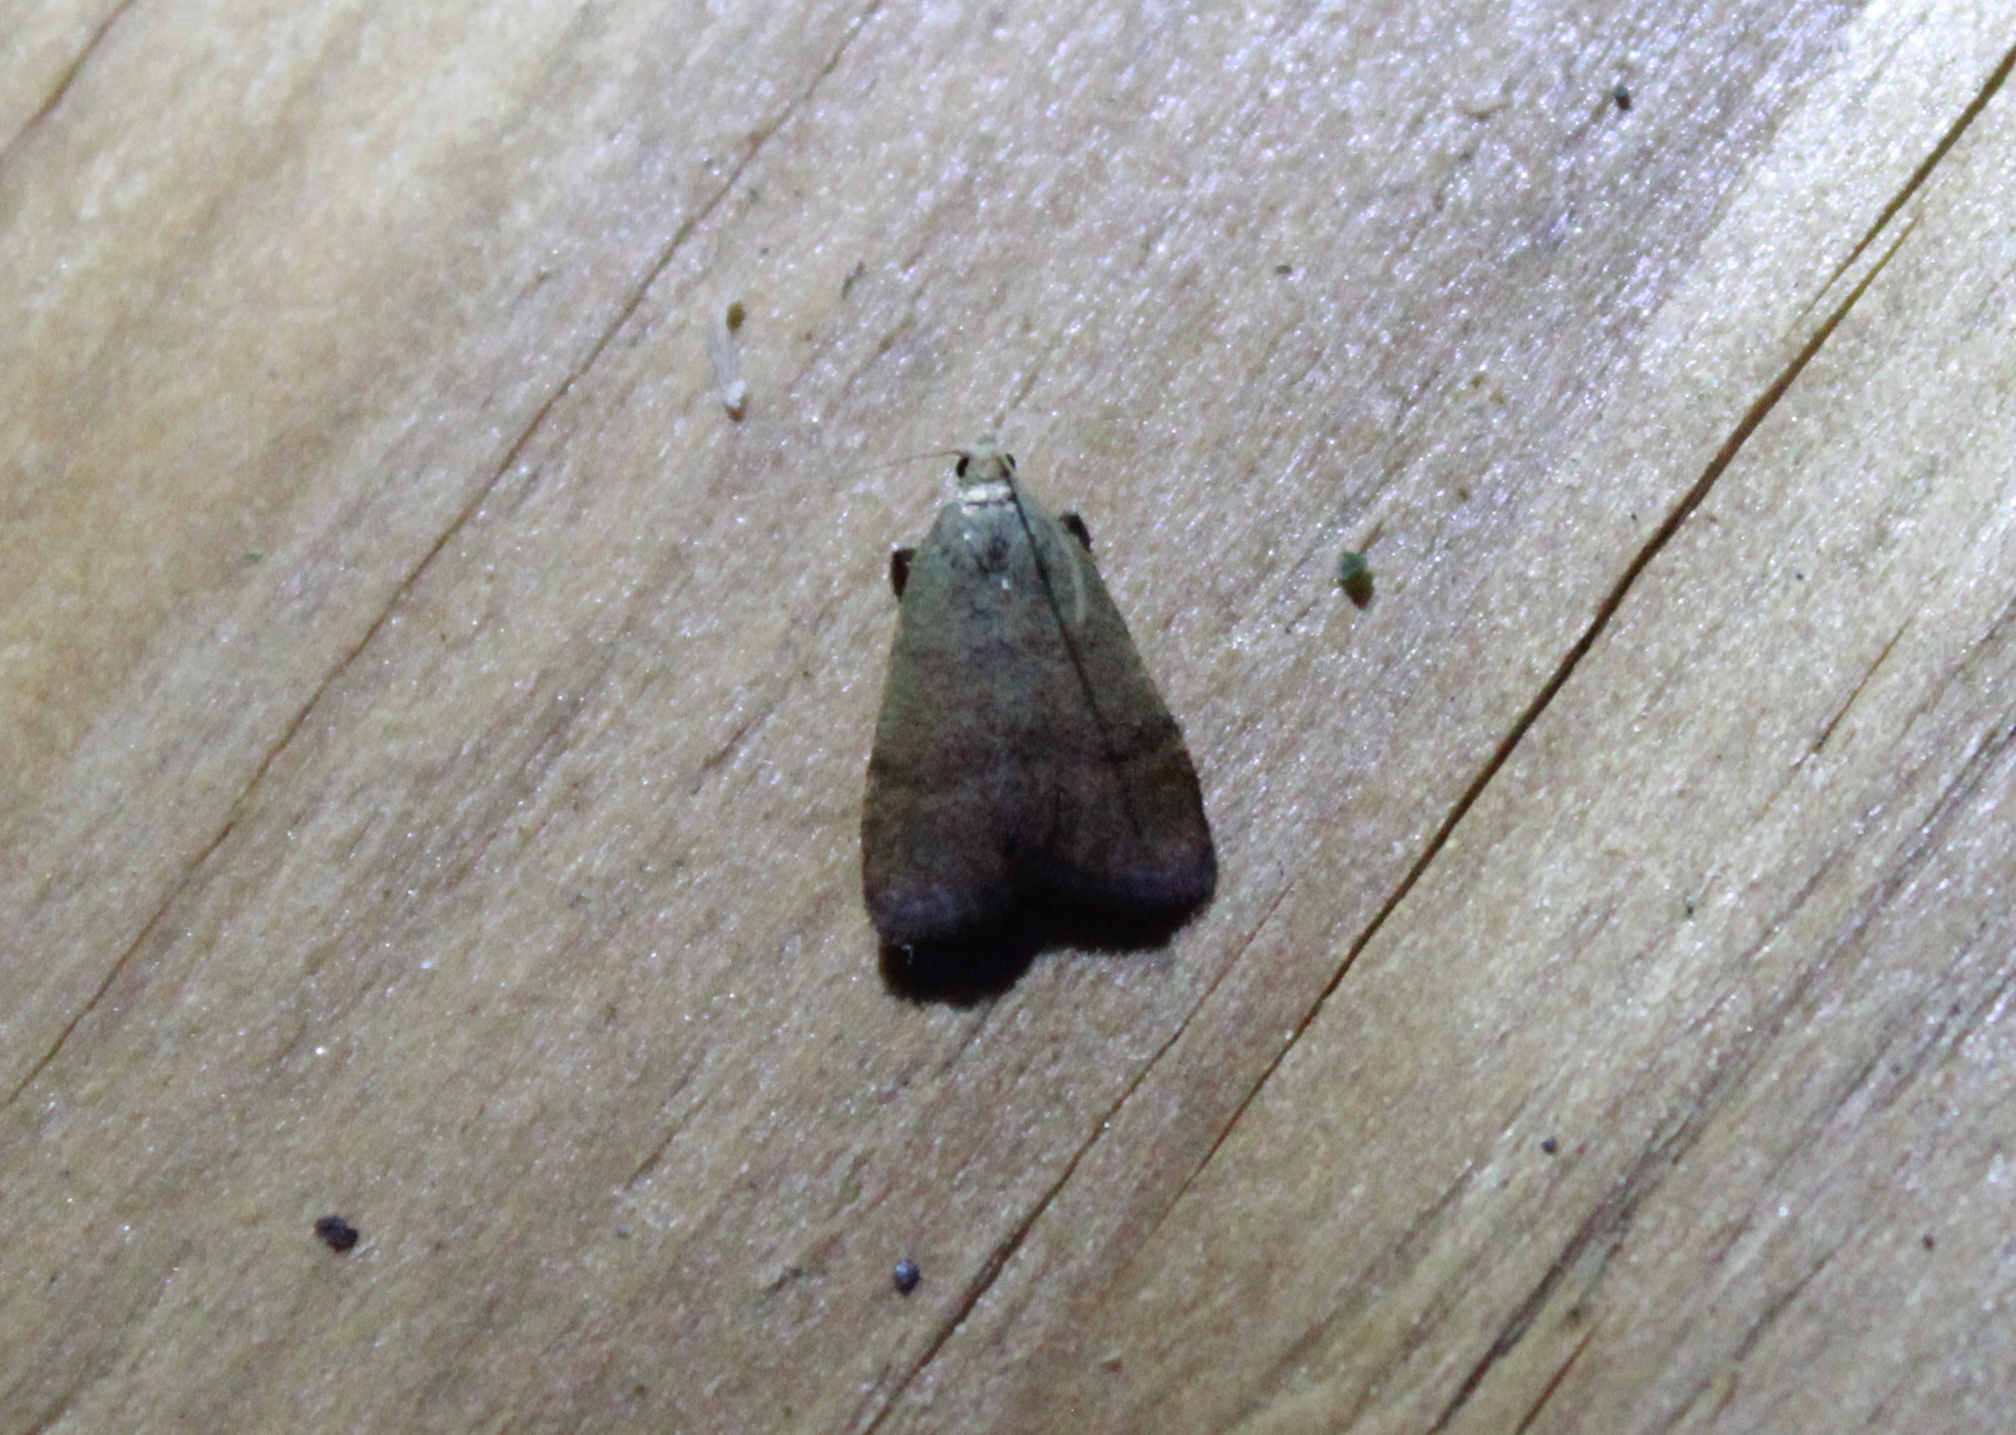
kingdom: Animalia
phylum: Arthropoda
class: Insecta
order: Lepidoptera
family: Pyralidae
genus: Condylolomia
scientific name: Condylolomia participialis
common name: Drab condylolomia moth
